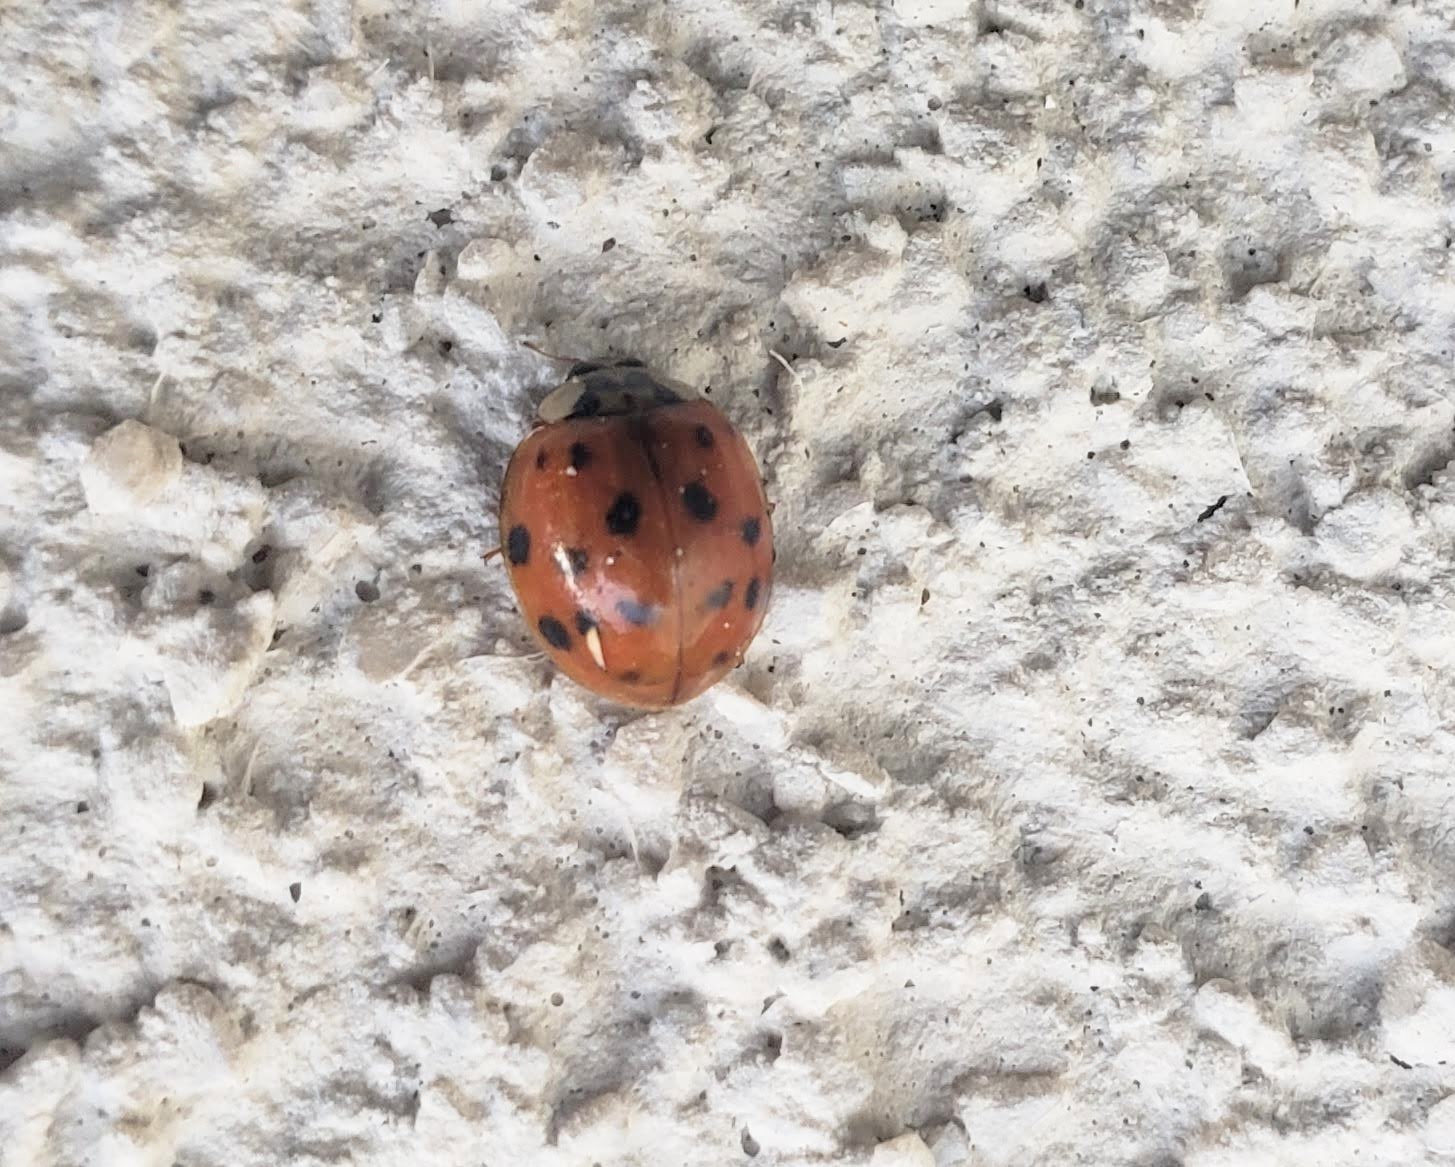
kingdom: Animalia
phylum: Arthropoda
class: Insecta
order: Coleoptera
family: Coccinellidae
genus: Harmonia
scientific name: Harmonia axyridis
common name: Harlequin ladybird
